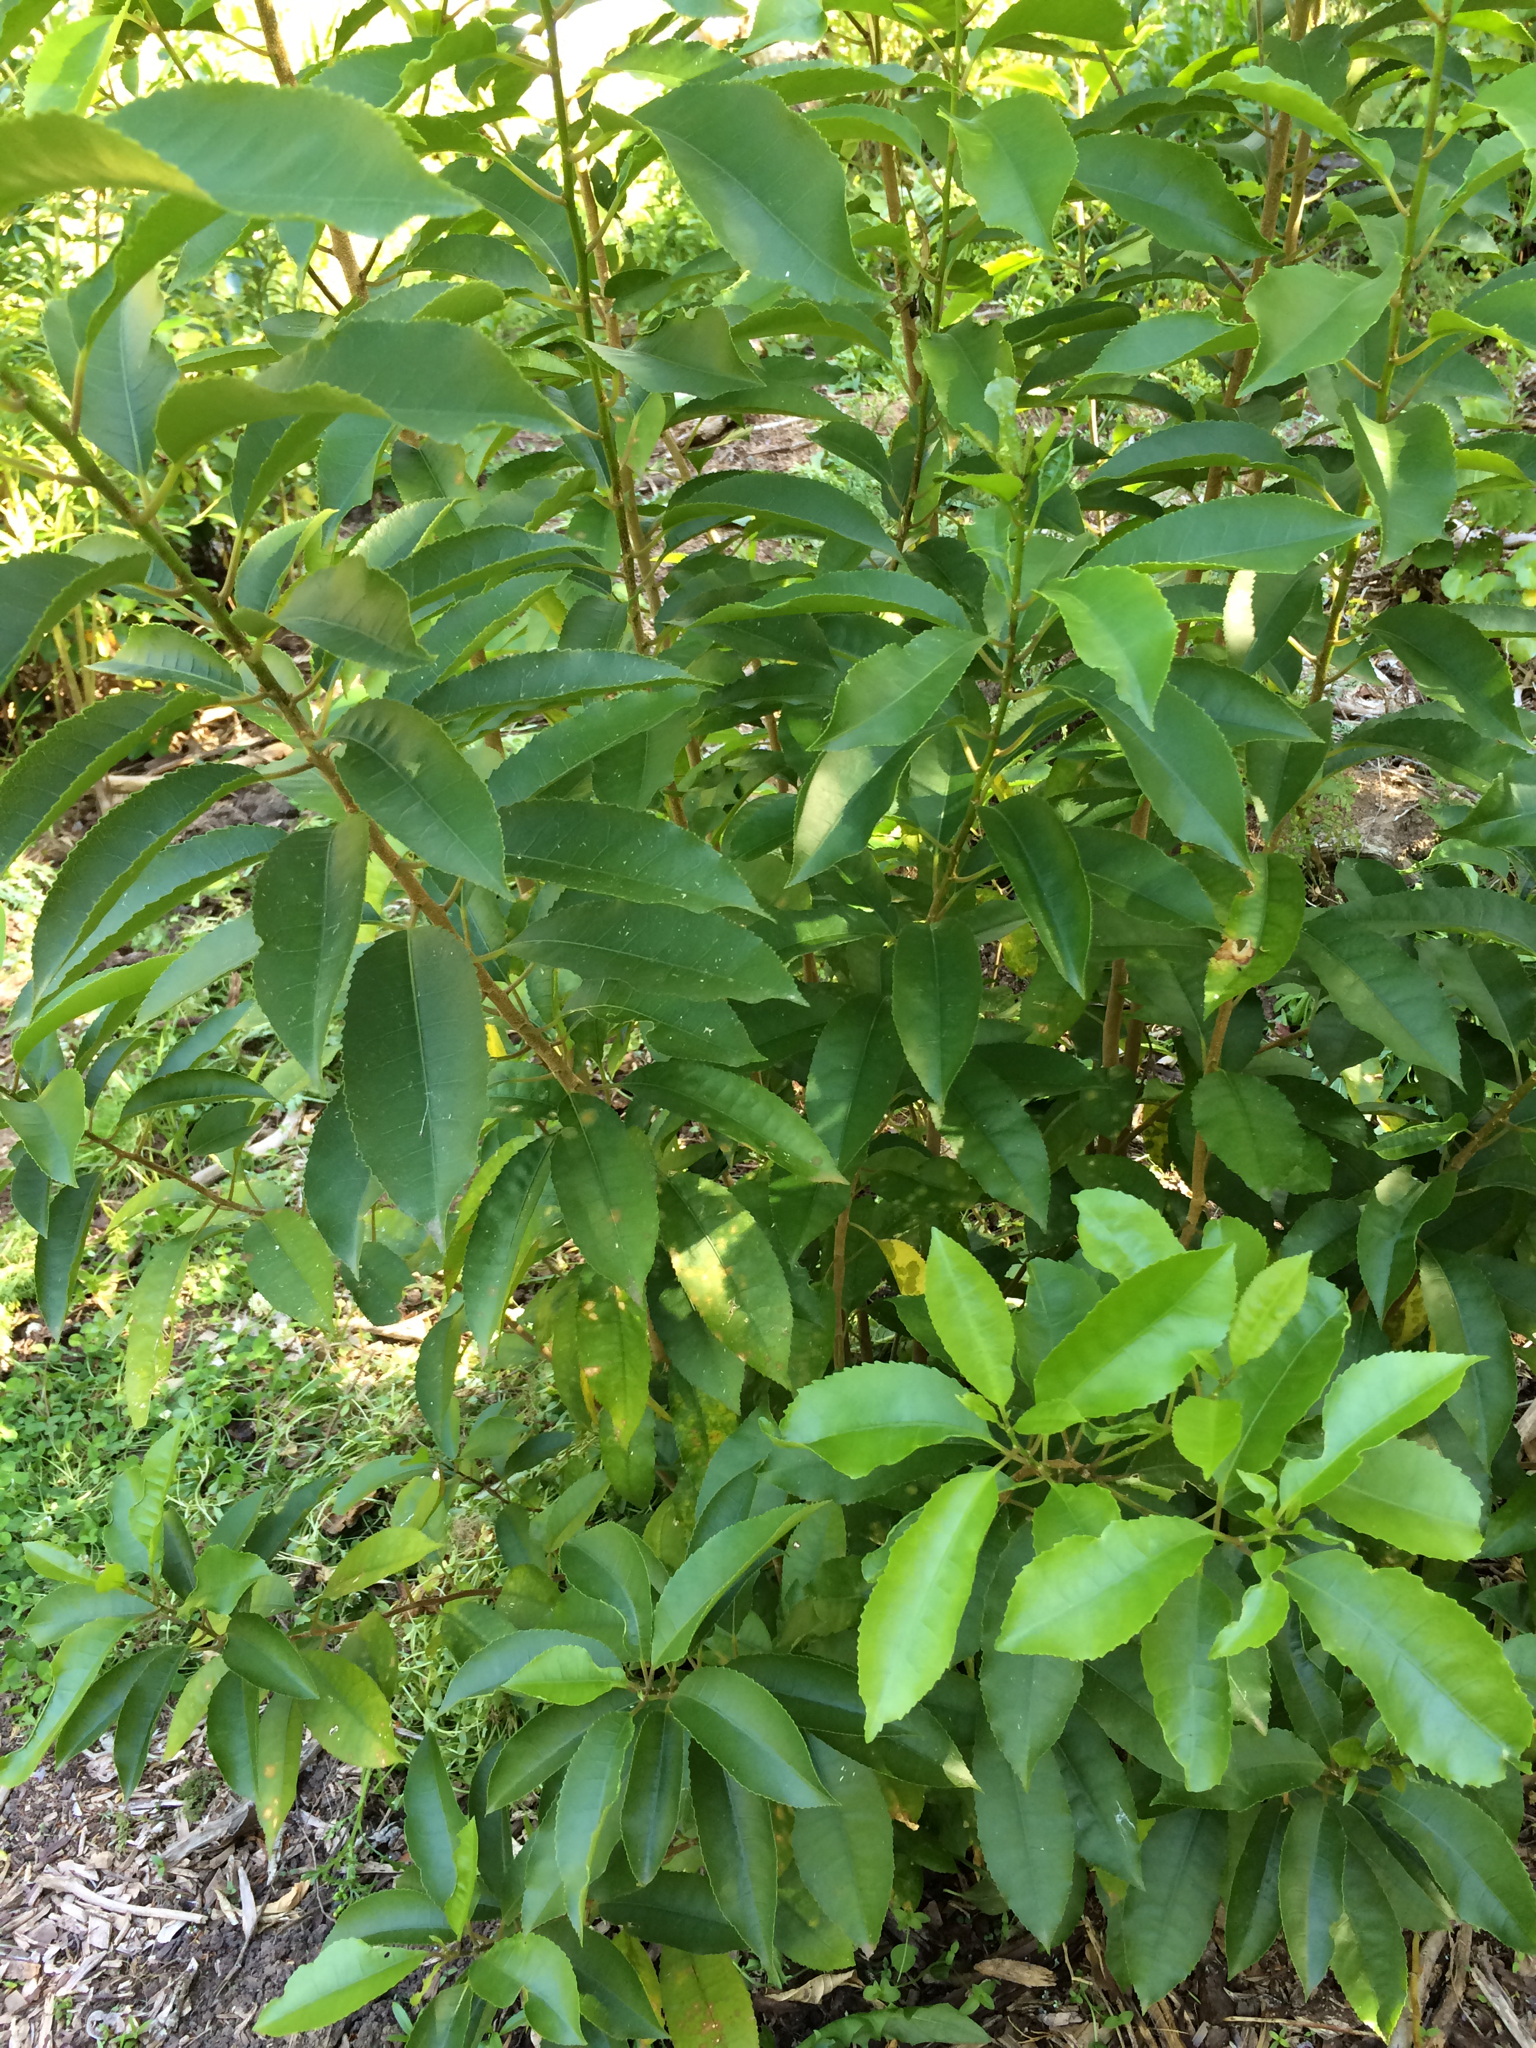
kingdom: Plantae
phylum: Tracheophyta
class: Magnoliopsida
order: Malpighiales
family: Violaceae
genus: Melicytus
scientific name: Melicytus ramiflorus
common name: Mahoe
